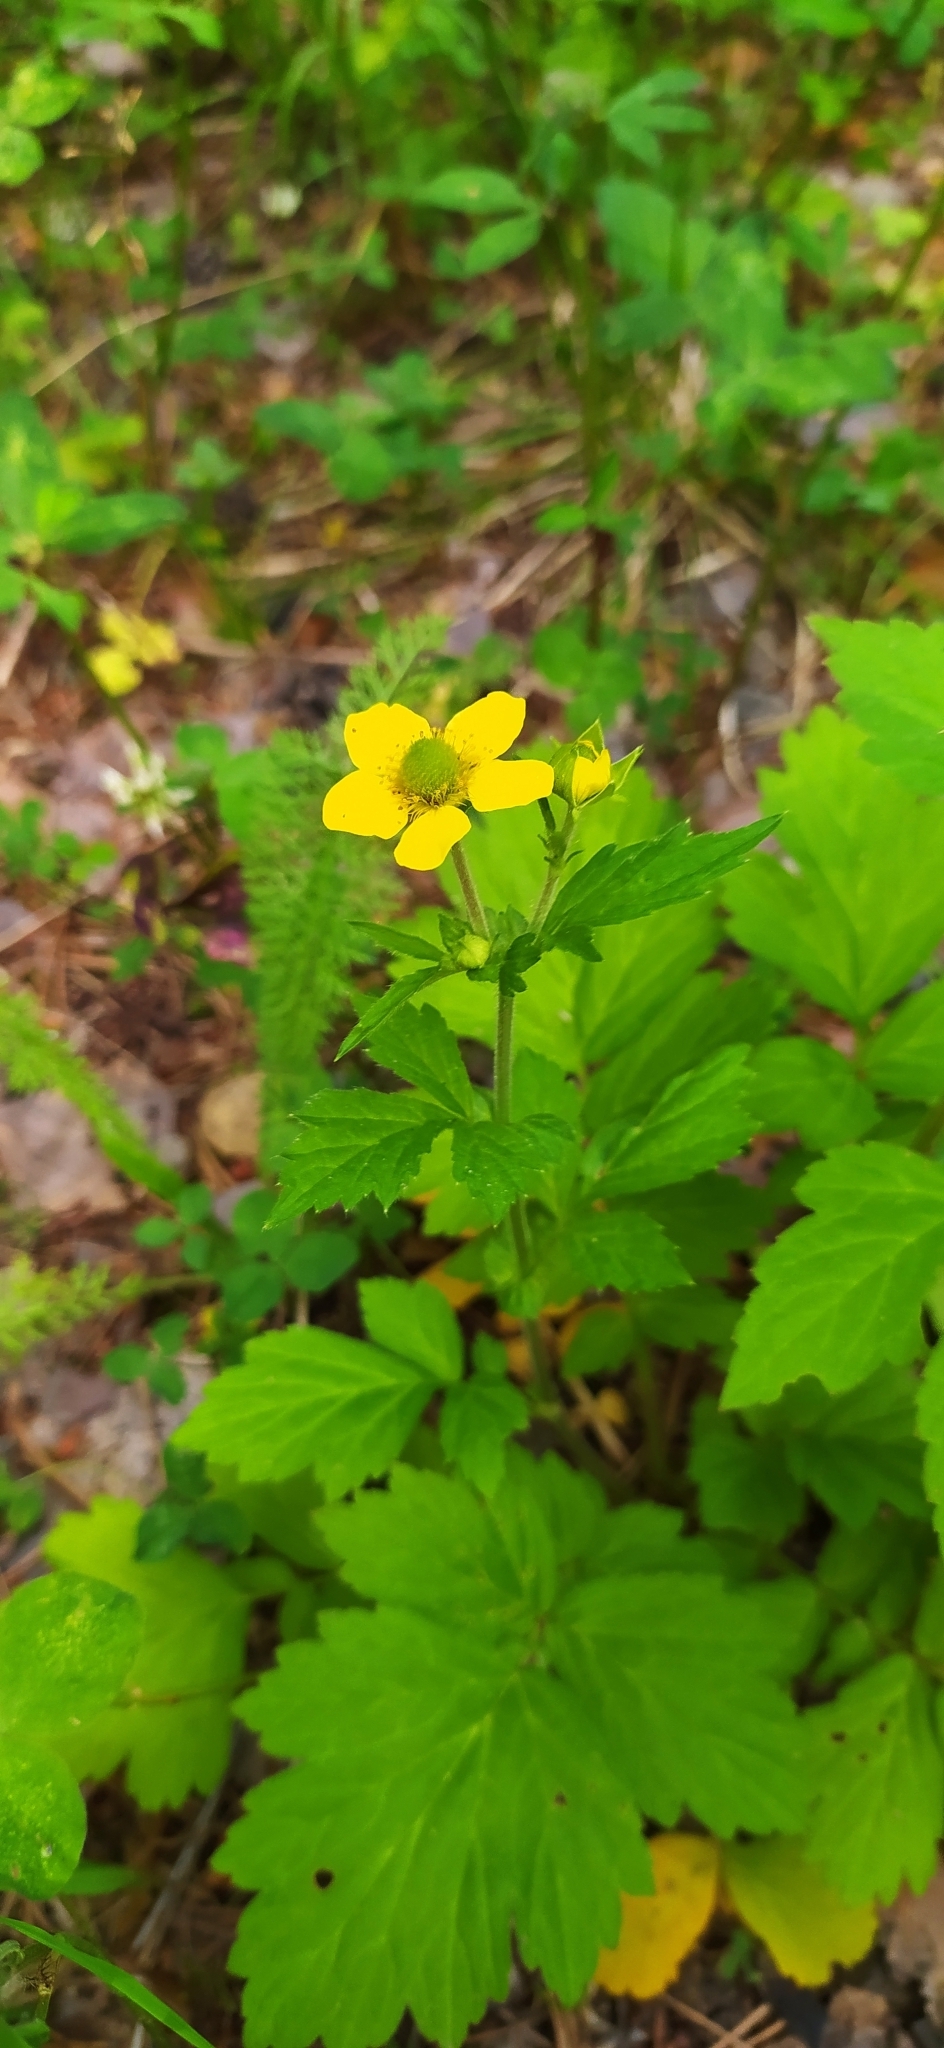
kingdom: Plantae
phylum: Tracheophyta
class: Magnoliopsida
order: Rosales
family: Rosaceae
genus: Geum
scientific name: Geum aleppicum
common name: Yellow avens
